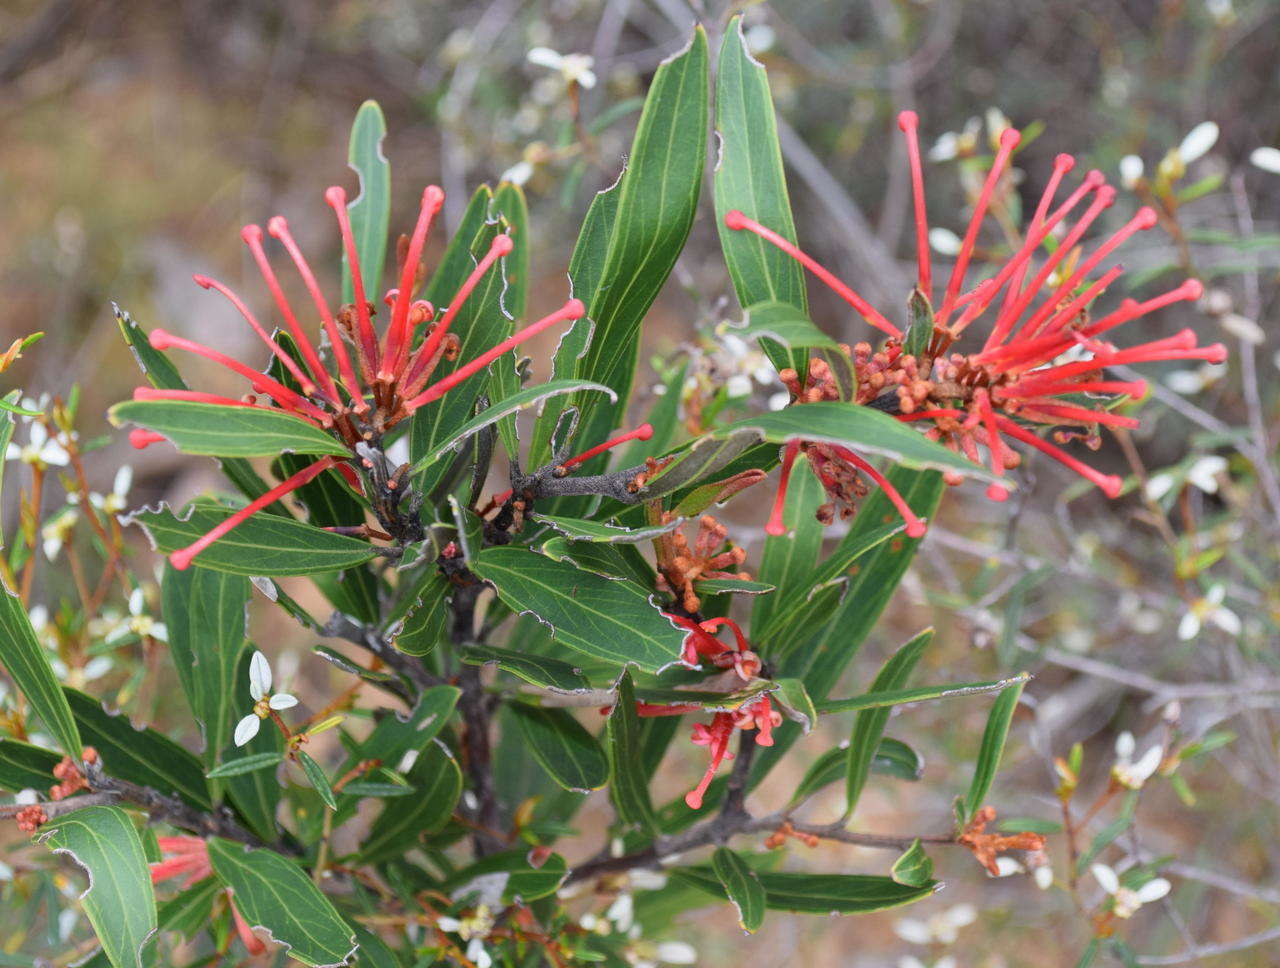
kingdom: Plantae
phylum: Tracheophyta
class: Magnoliopsida
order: Proteales
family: Proteaceae
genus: Grevillea
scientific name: Grevillea dimorpha
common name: Flame grevillea
